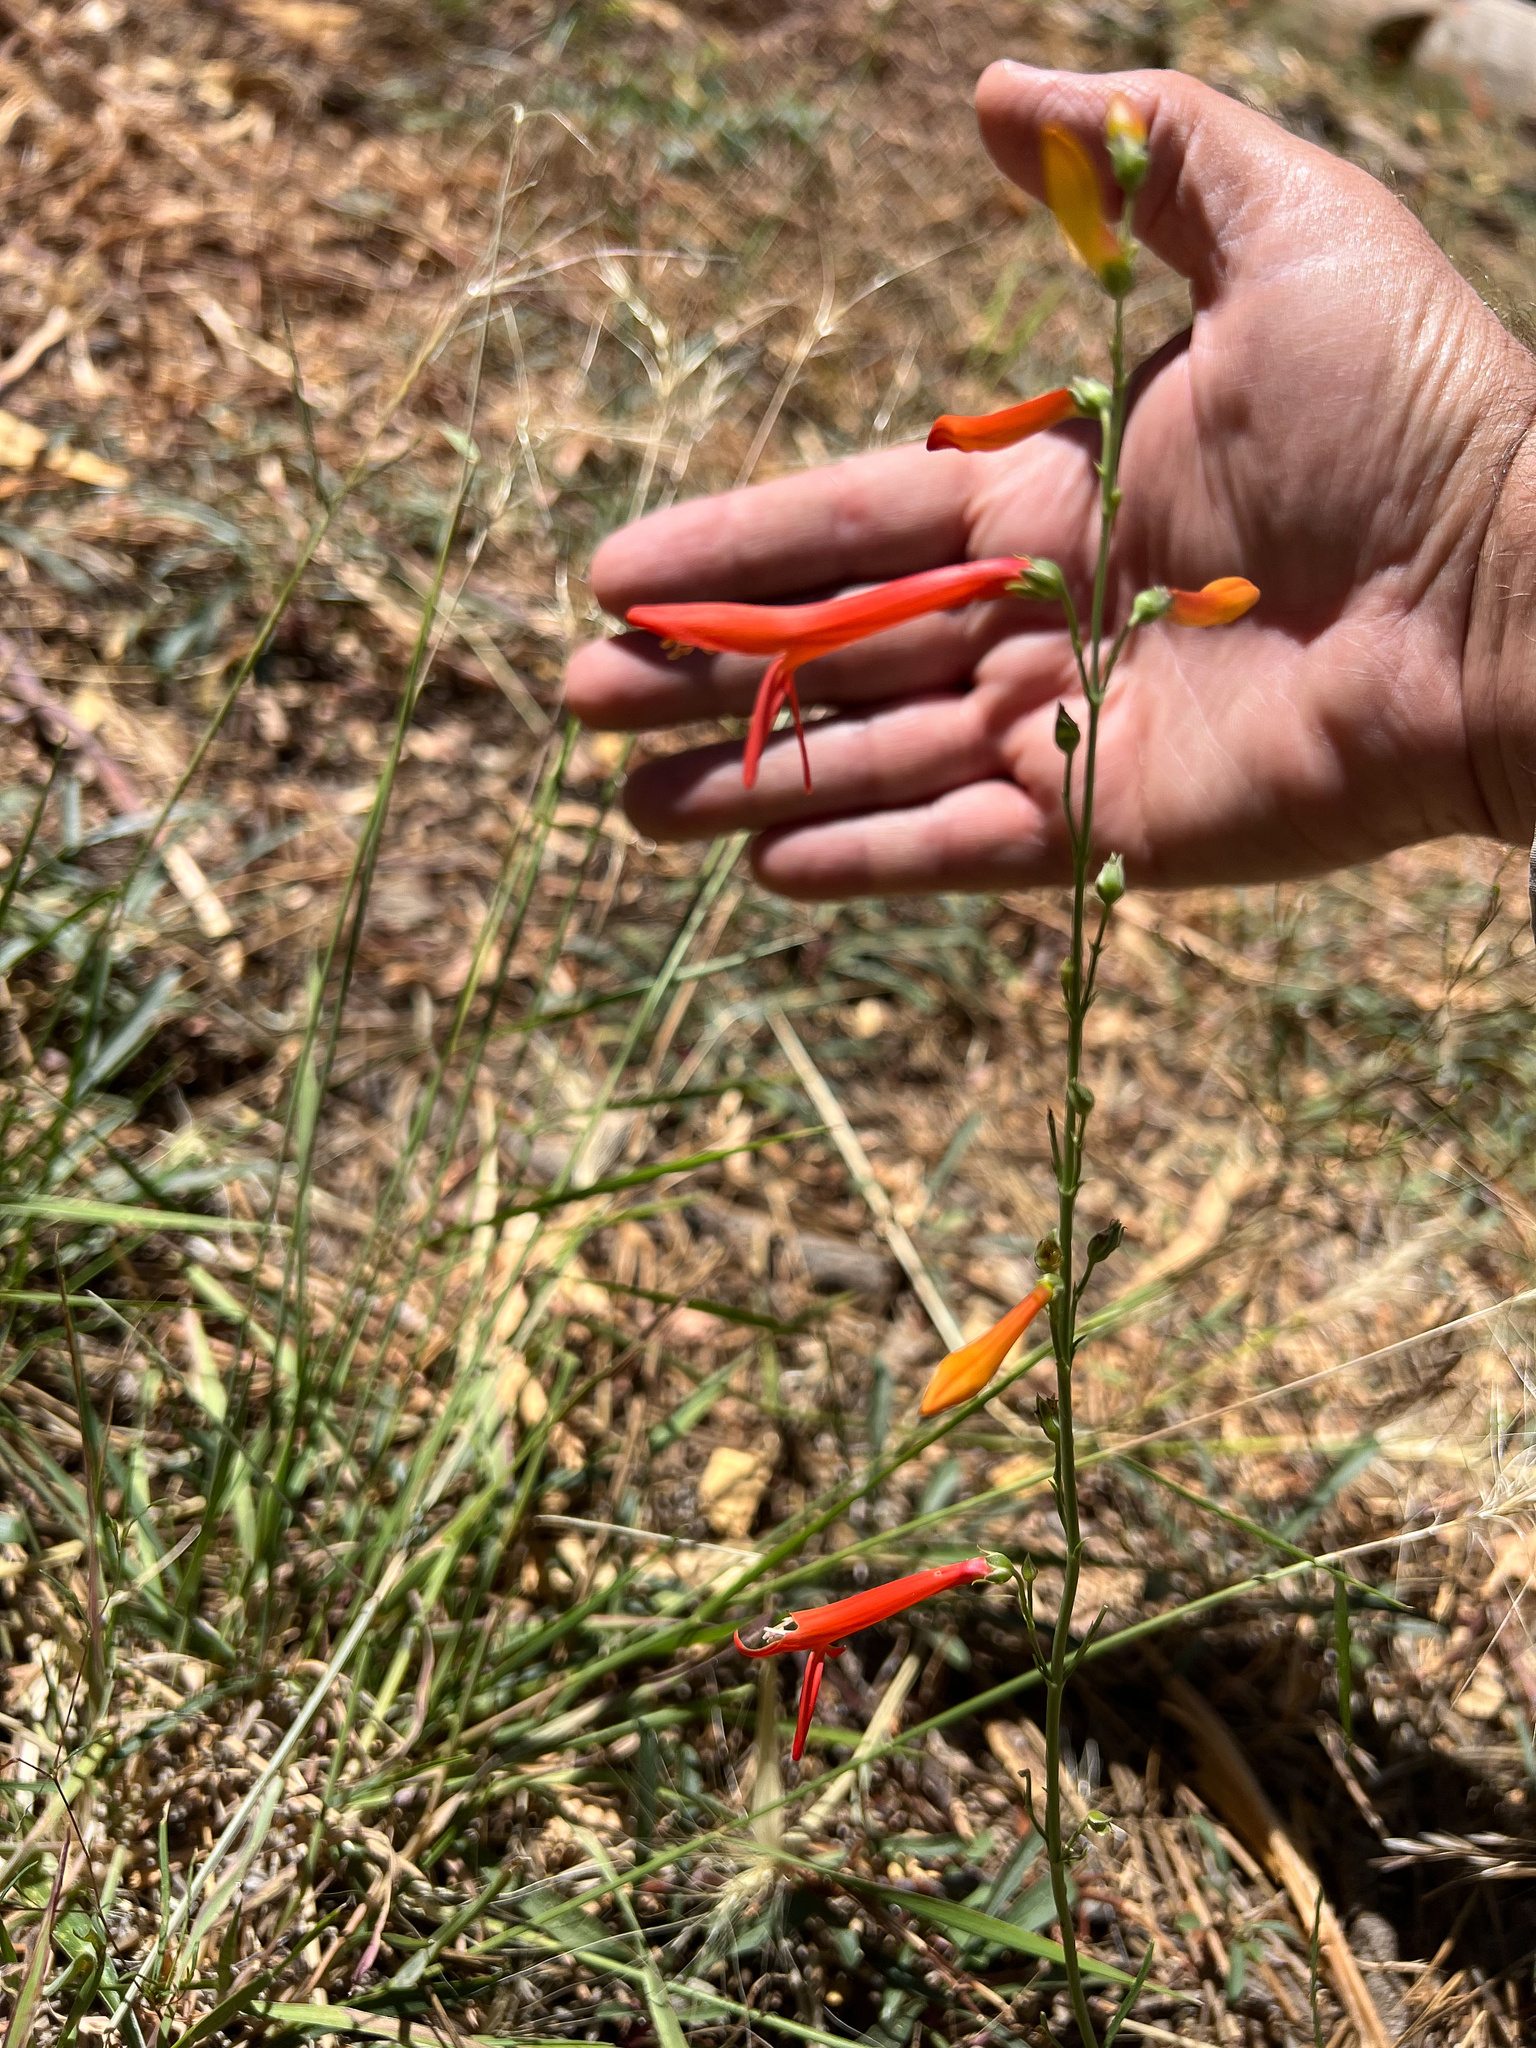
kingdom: Plantae
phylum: Tracheophyta
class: Magnoliopsida
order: Lamiales
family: Plantaginaceae
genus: Penstemon
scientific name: Penstemon labrosus
